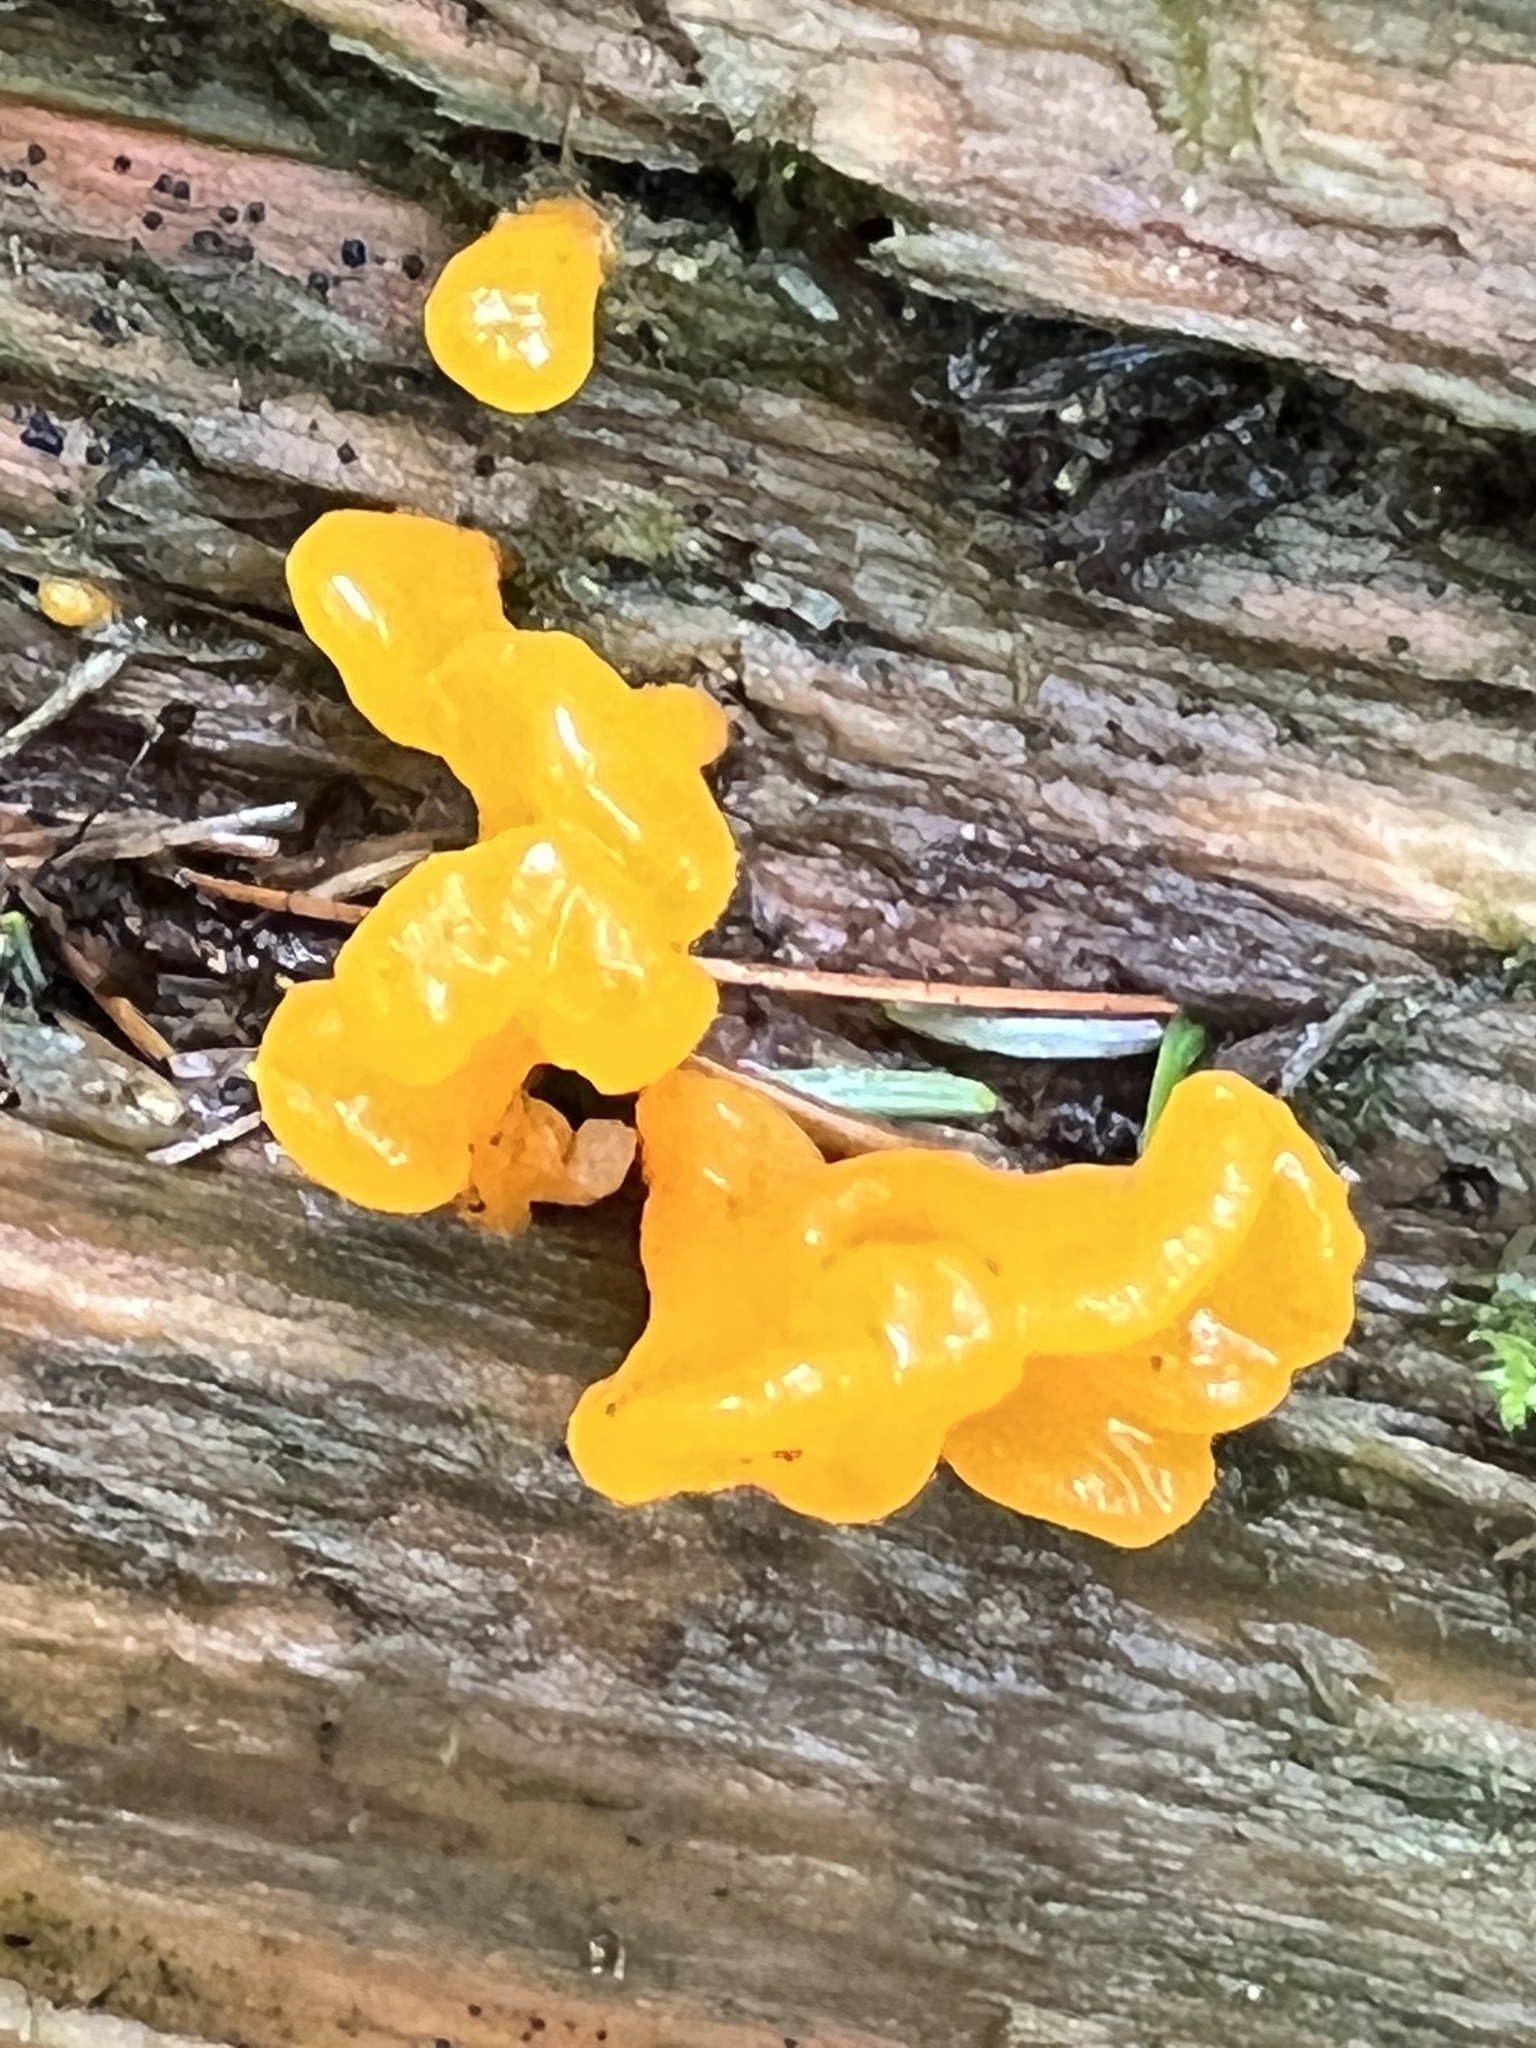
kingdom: Fungi
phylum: Basidiomycota
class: Dacrymycetes
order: Dacrymycetales
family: Dacrymycetaceae
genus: Dacrymyces
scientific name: Dacrymyces chrysospermus
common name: Orange jelly spot
